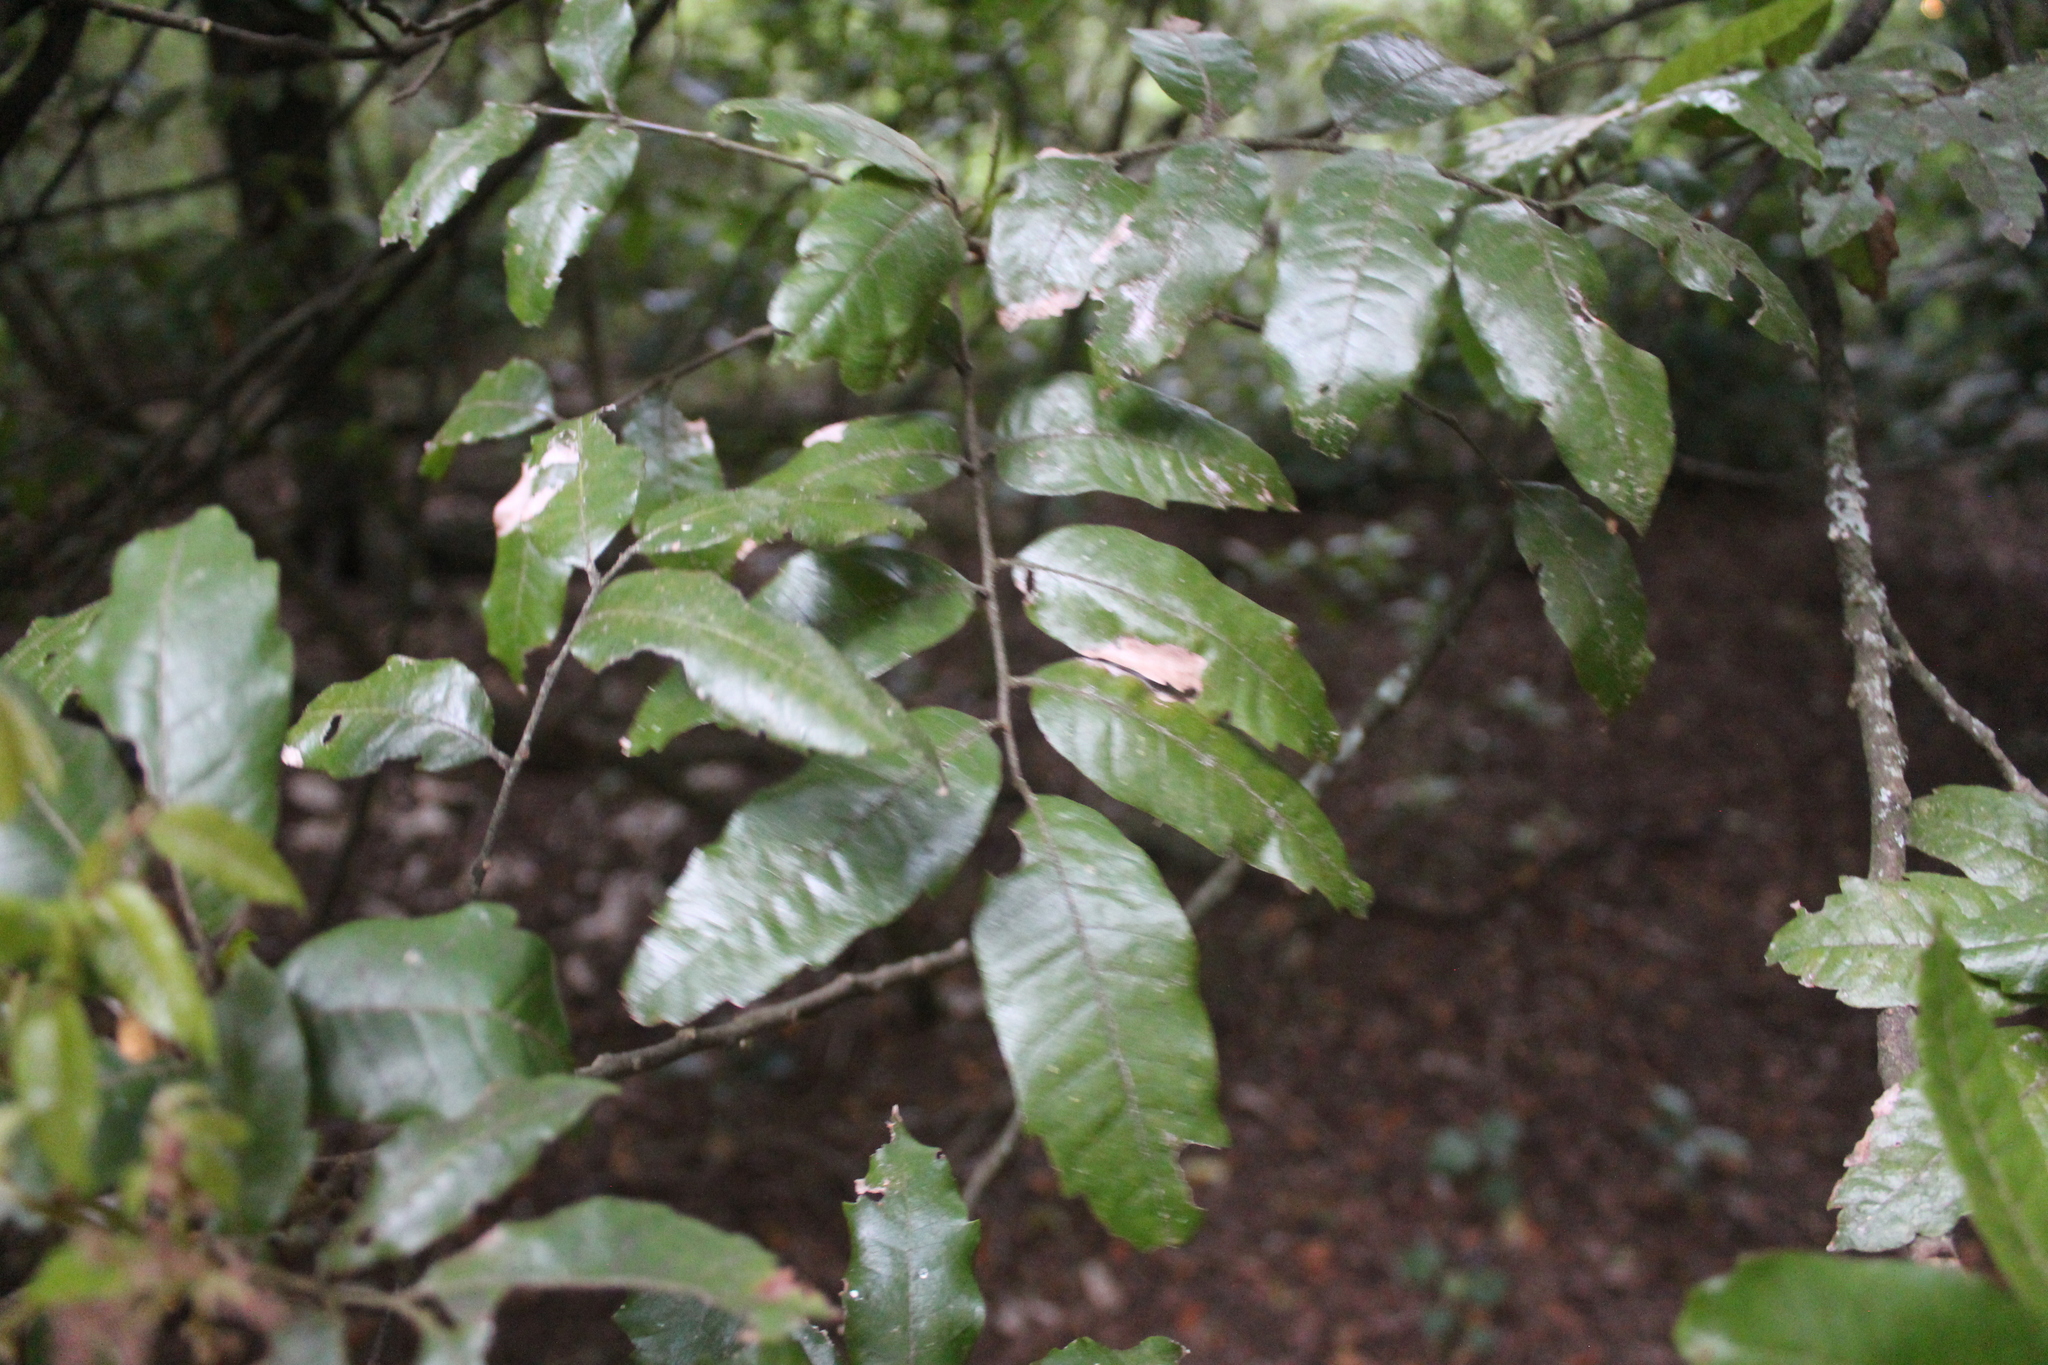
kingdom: Plantae
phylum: Tracheophyta
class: Magnoliopsida
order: Sapindales
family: Sapindaceae
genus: Alectryon
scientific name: Alectryon excelsus
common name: Three kings titoki
